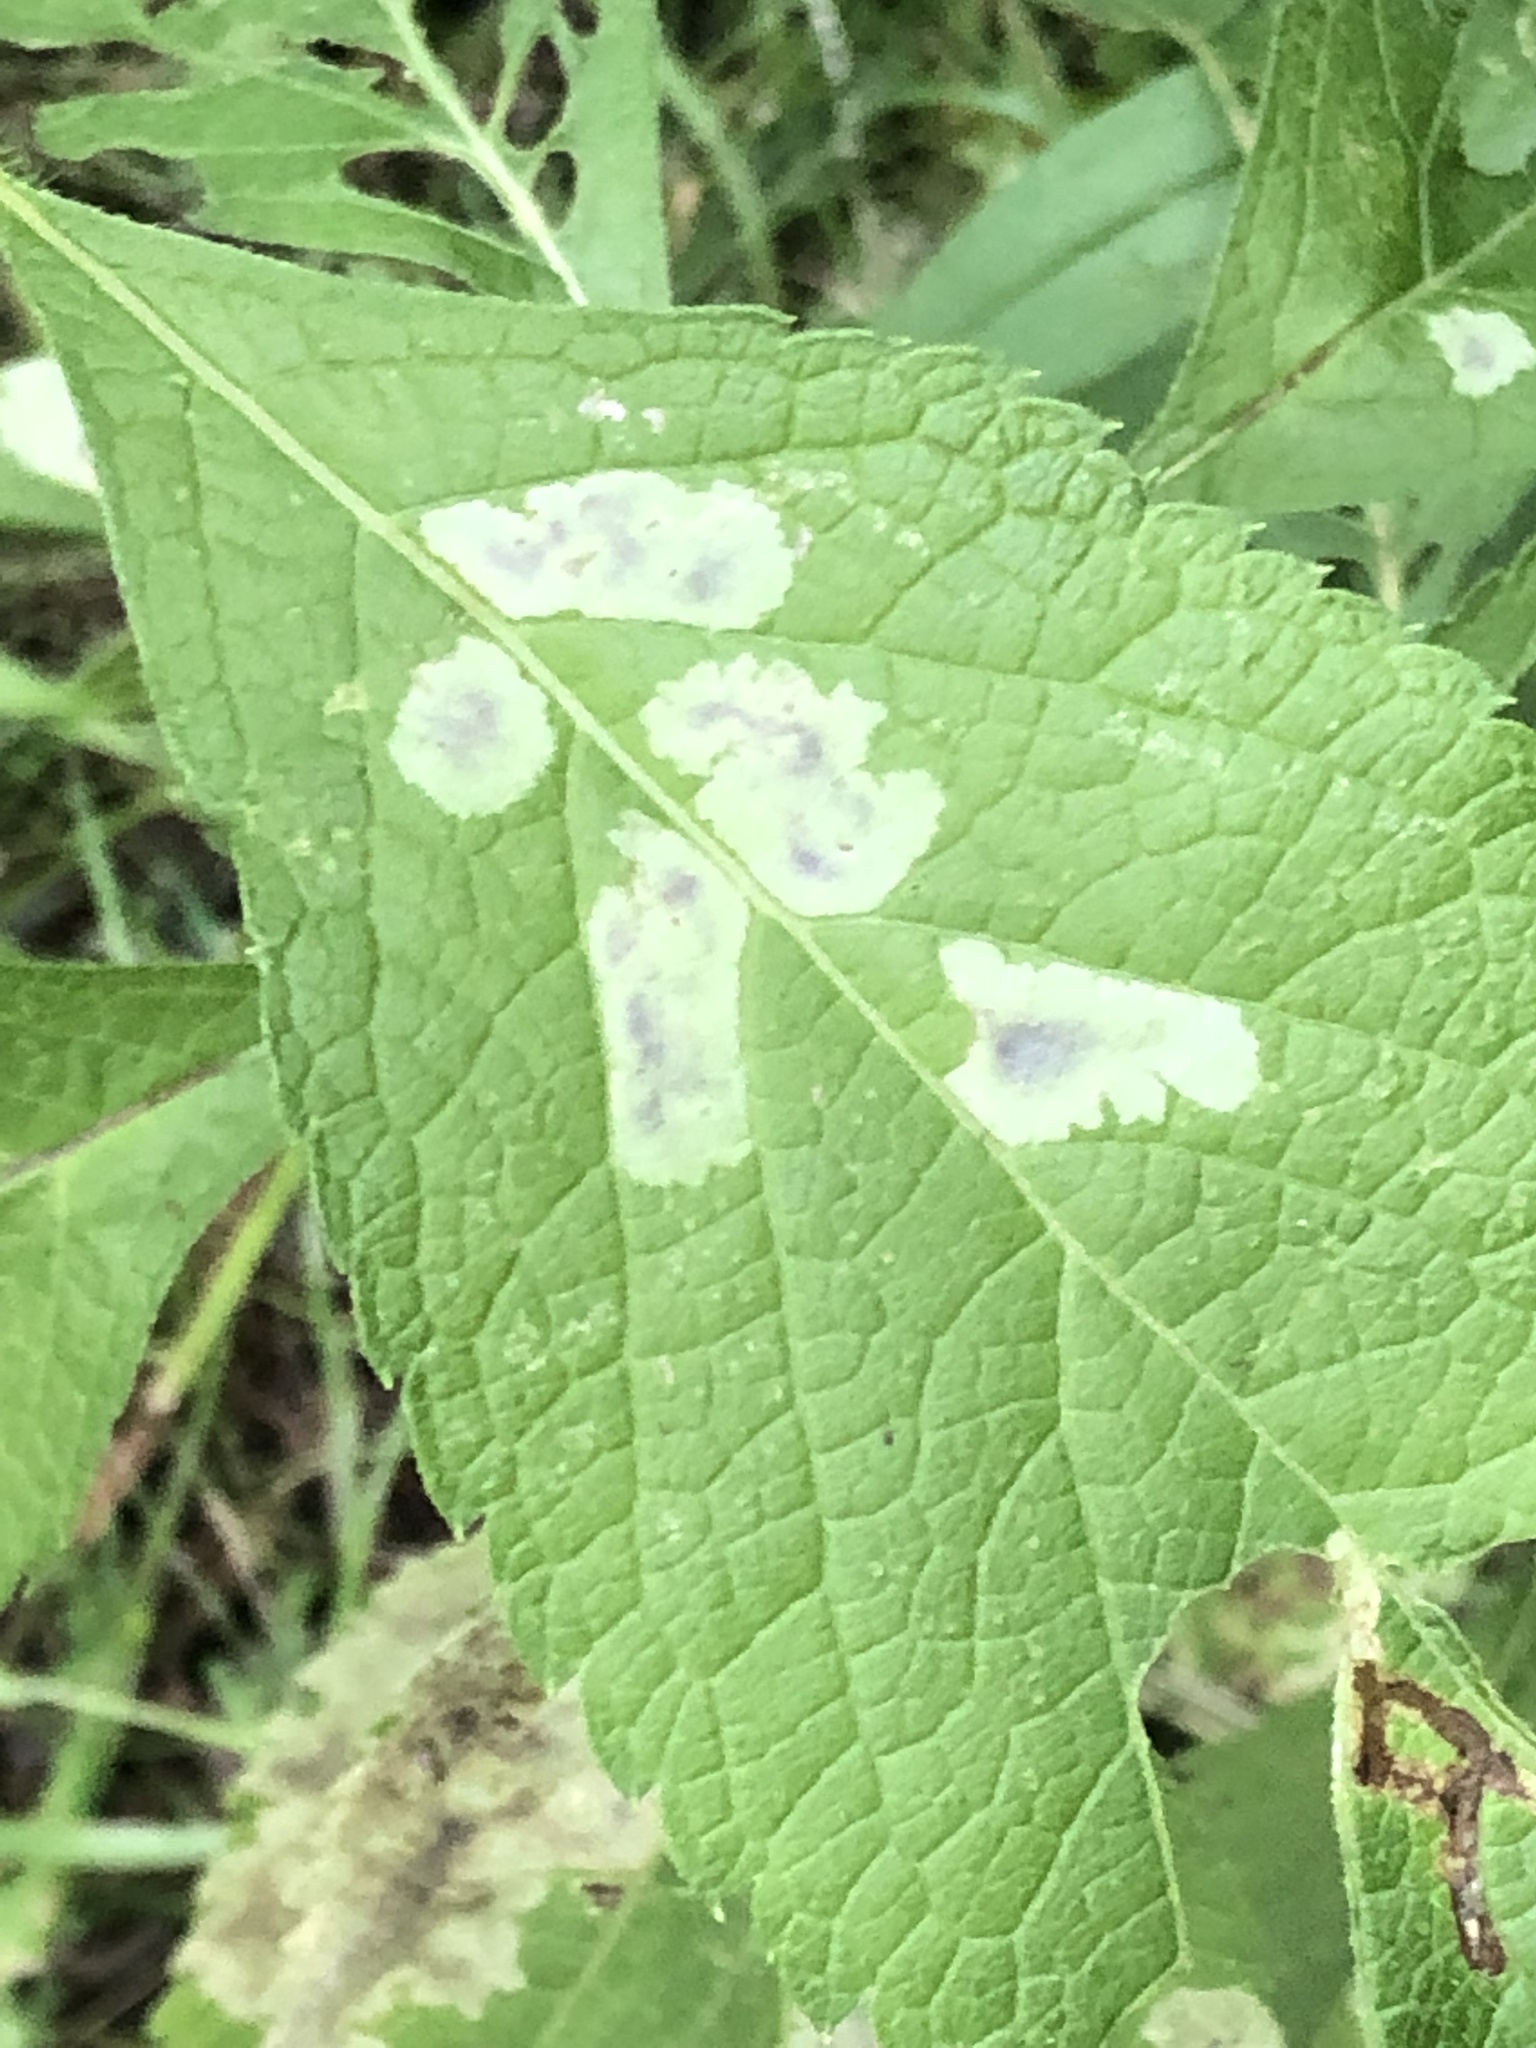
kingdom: Animalia
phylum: Arthropoda
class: Insecta
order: Diptera
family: Agromyzidae
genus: Calycomyza
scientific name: Calycomyza flavinotum
